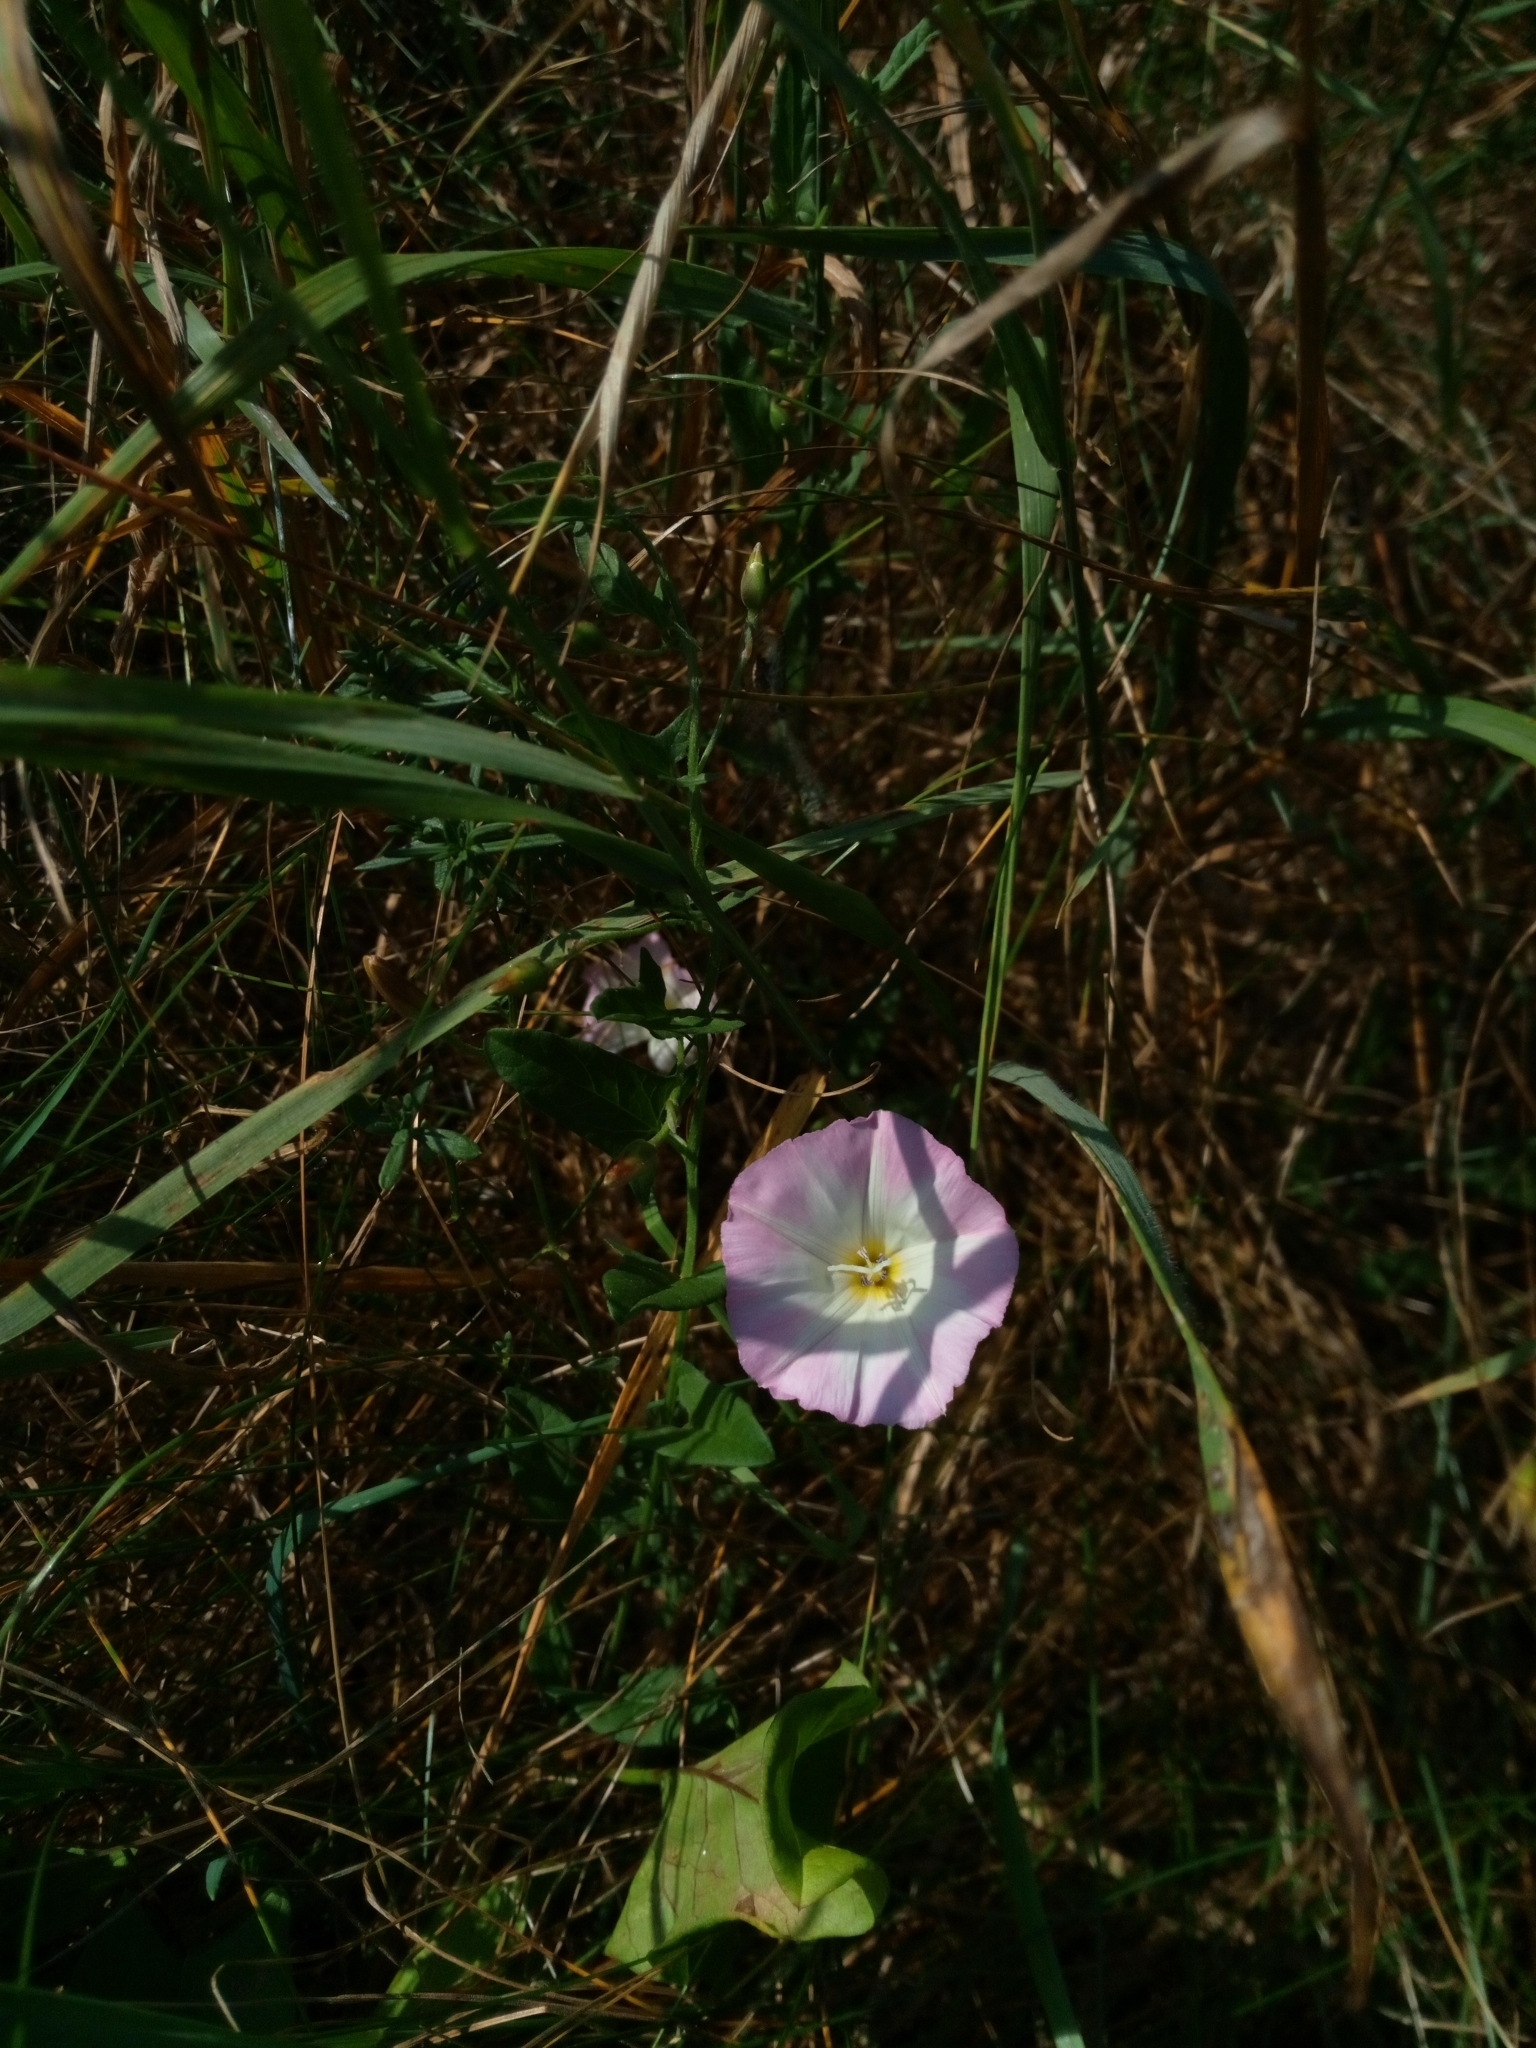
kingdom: Plantae
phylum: Tracheophyta
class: Magnoliopsida
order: Solanales
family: Convolvulaceae
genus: Convolvulus
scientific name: Convolvulus arvensis
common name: Field bindweed
